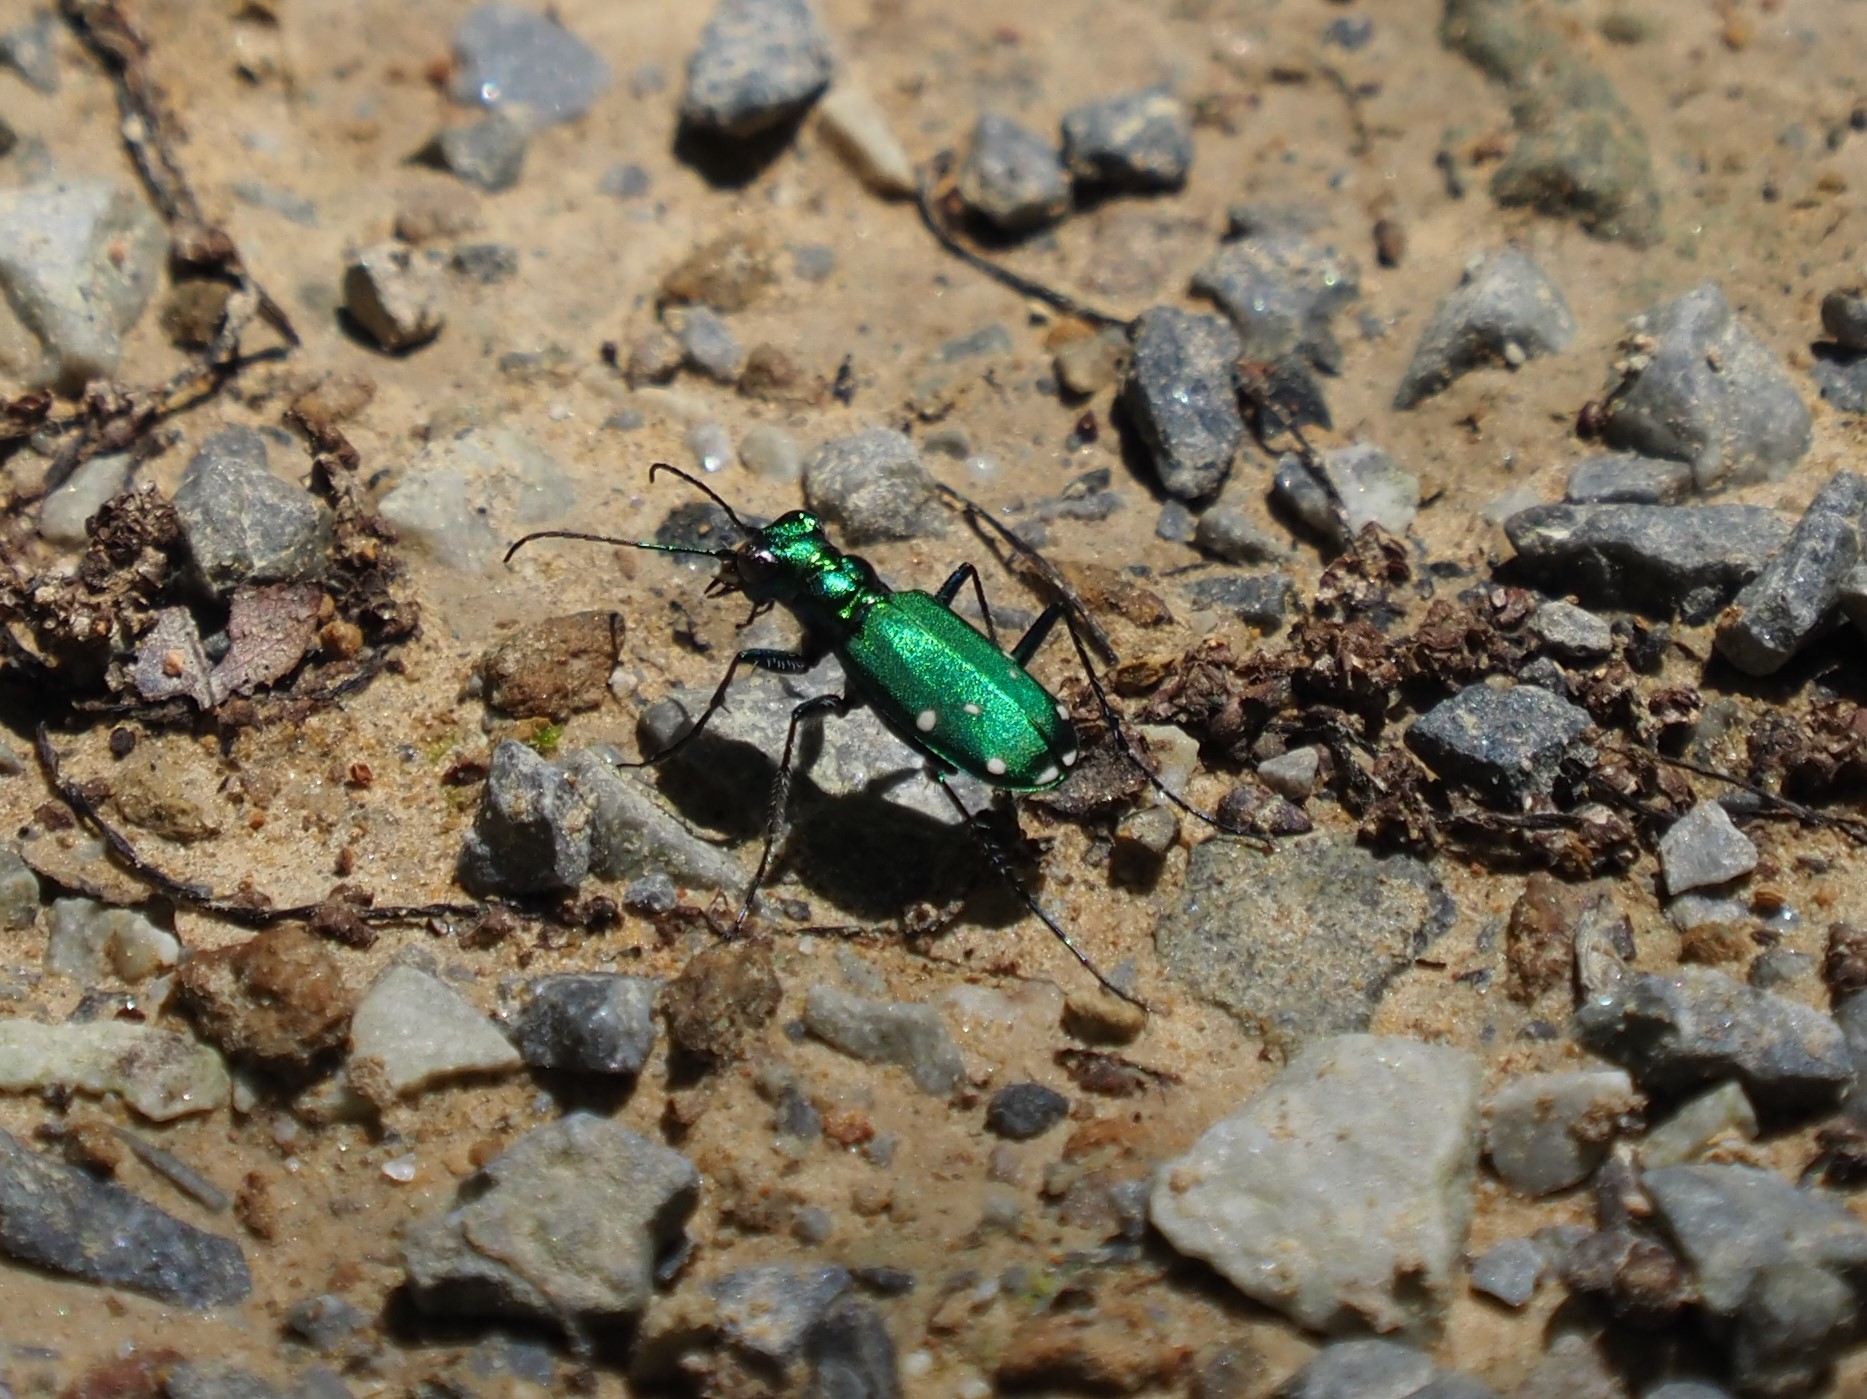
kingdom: Animalia
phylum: Arthropoda
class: Insecta
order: Coleoptera
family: Carabidae
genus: Cicindela
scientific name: Cicindela sexguttata
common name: Six-spotted tiger beetle
